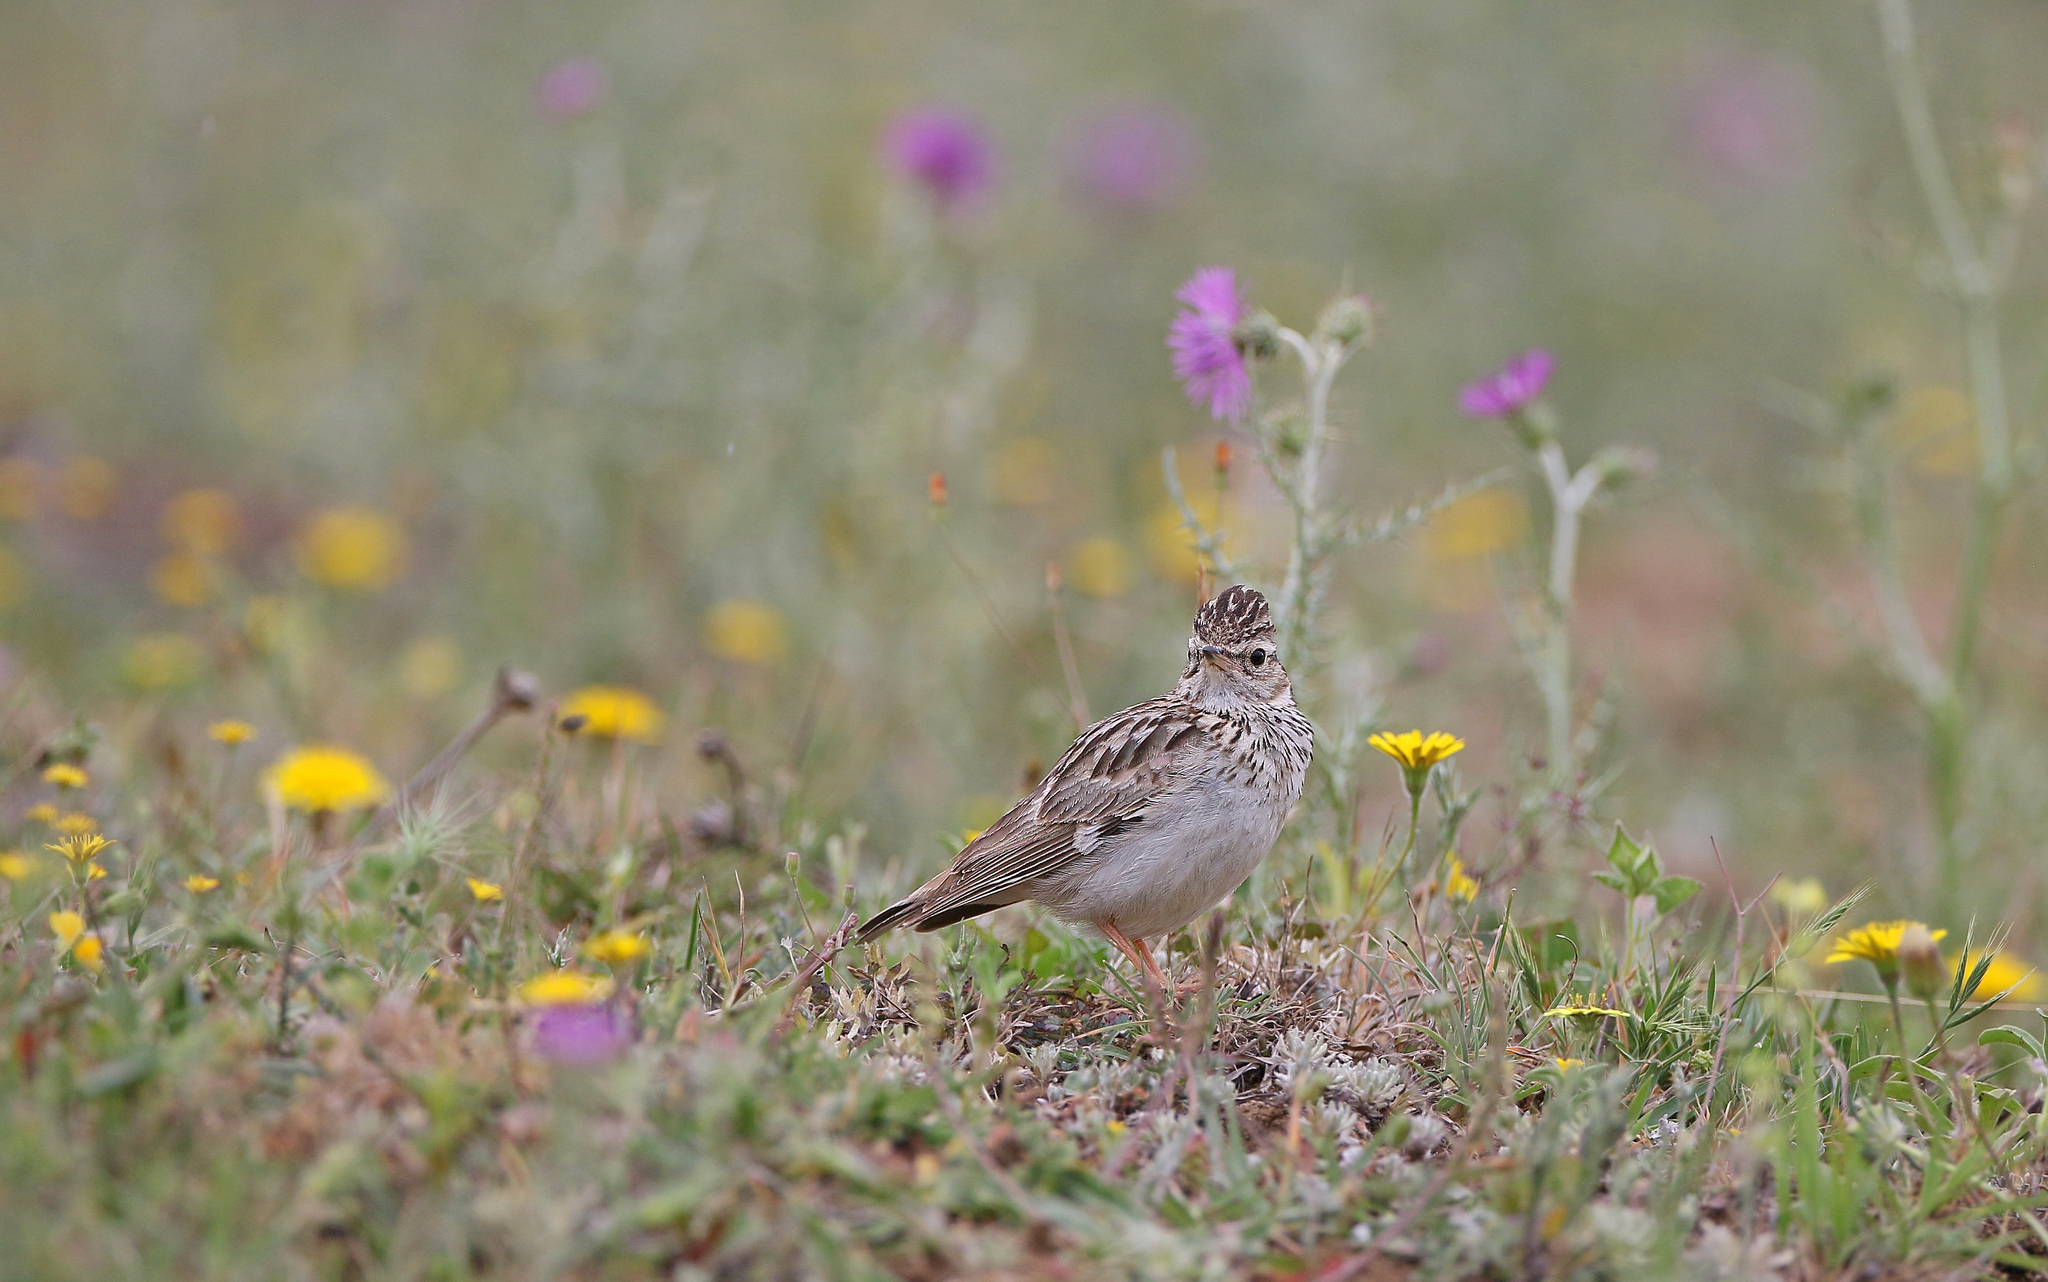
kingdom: Animalia
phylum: Chordata
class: Aves
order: Passeriformes
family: Alaudidae
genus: Lullula
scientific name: Lullula arborea
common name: Woodlark
